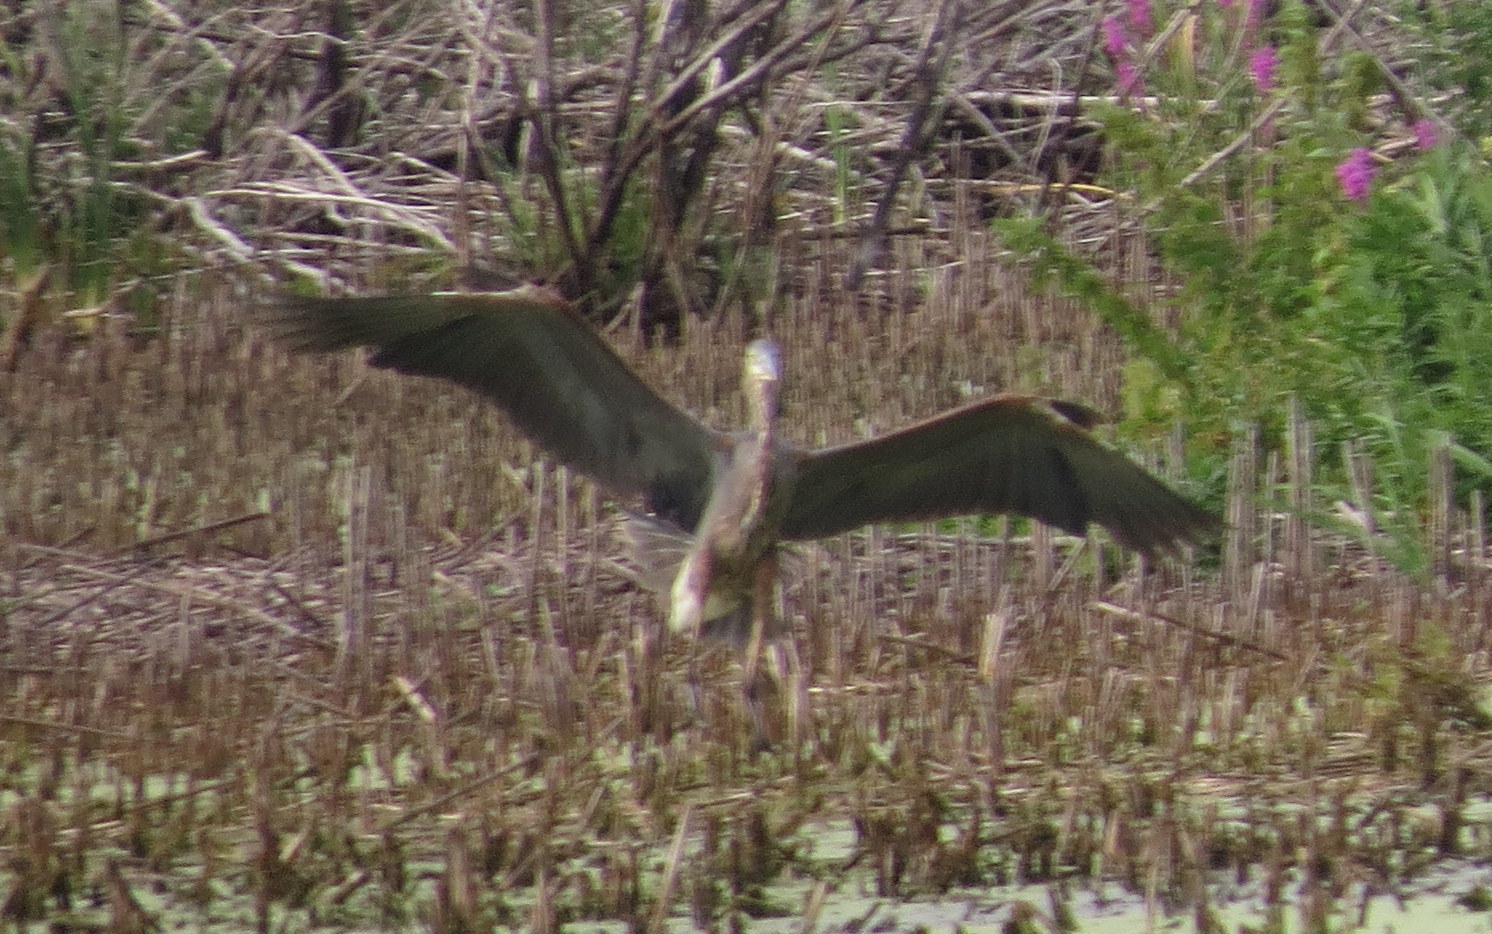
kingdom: Animalia
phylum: Chordata
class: Aves
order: Pelecaniformes
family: Ardeidae
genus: Ardea
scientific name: Ardea herodias
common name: Great blue heron
